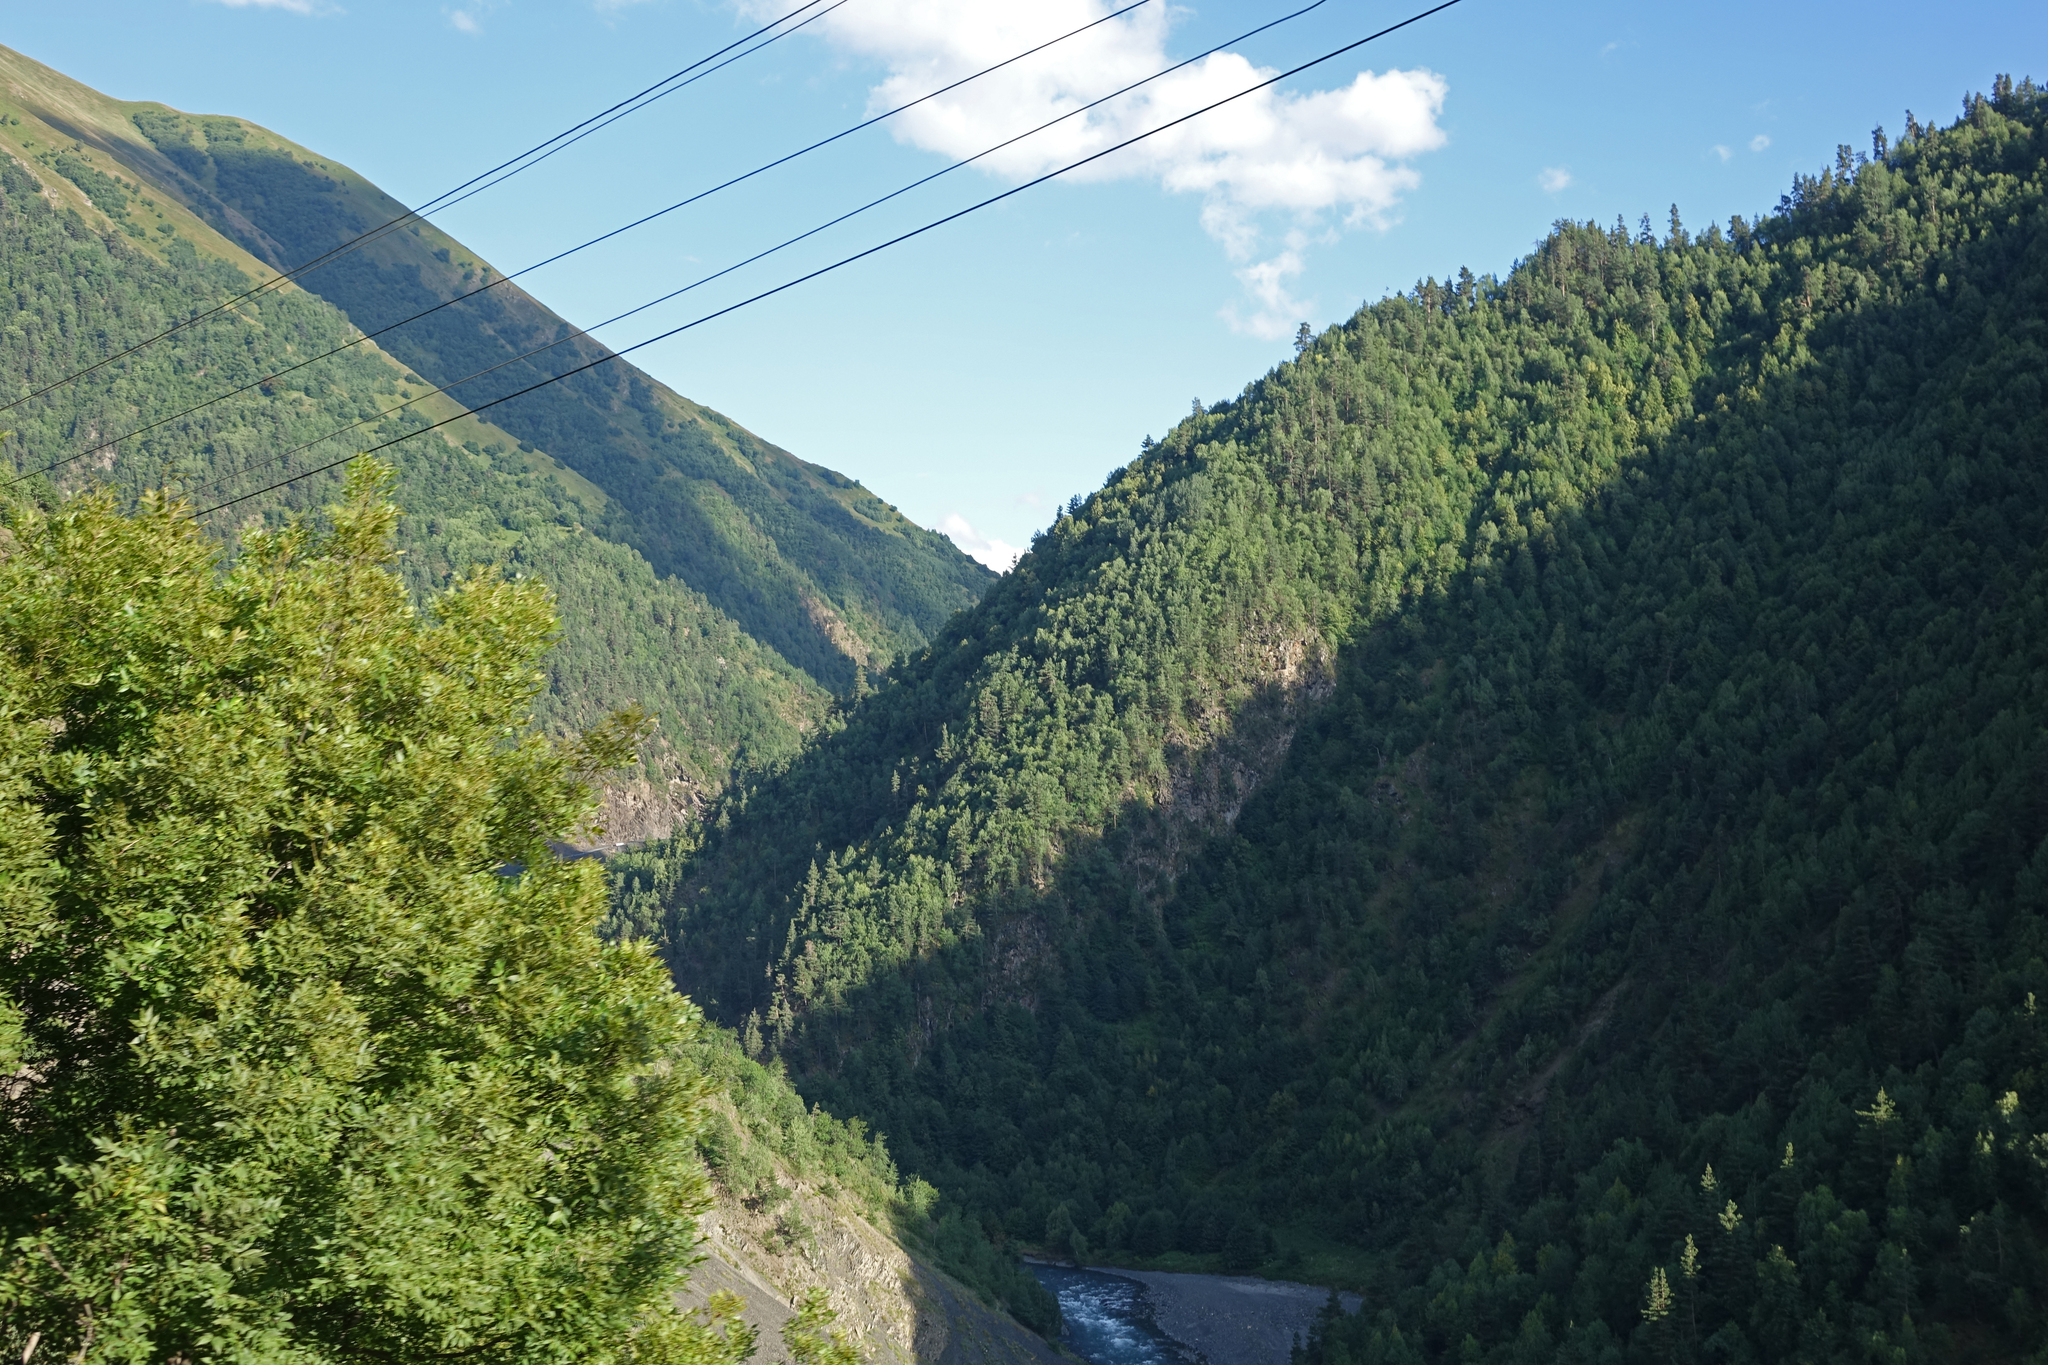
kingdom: Plantae
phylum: Tracheophyta
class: Pinopsida
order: Pinales
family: Pinaceae
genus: Pinus
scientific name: Pinus sylvestris
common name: Scots pine
